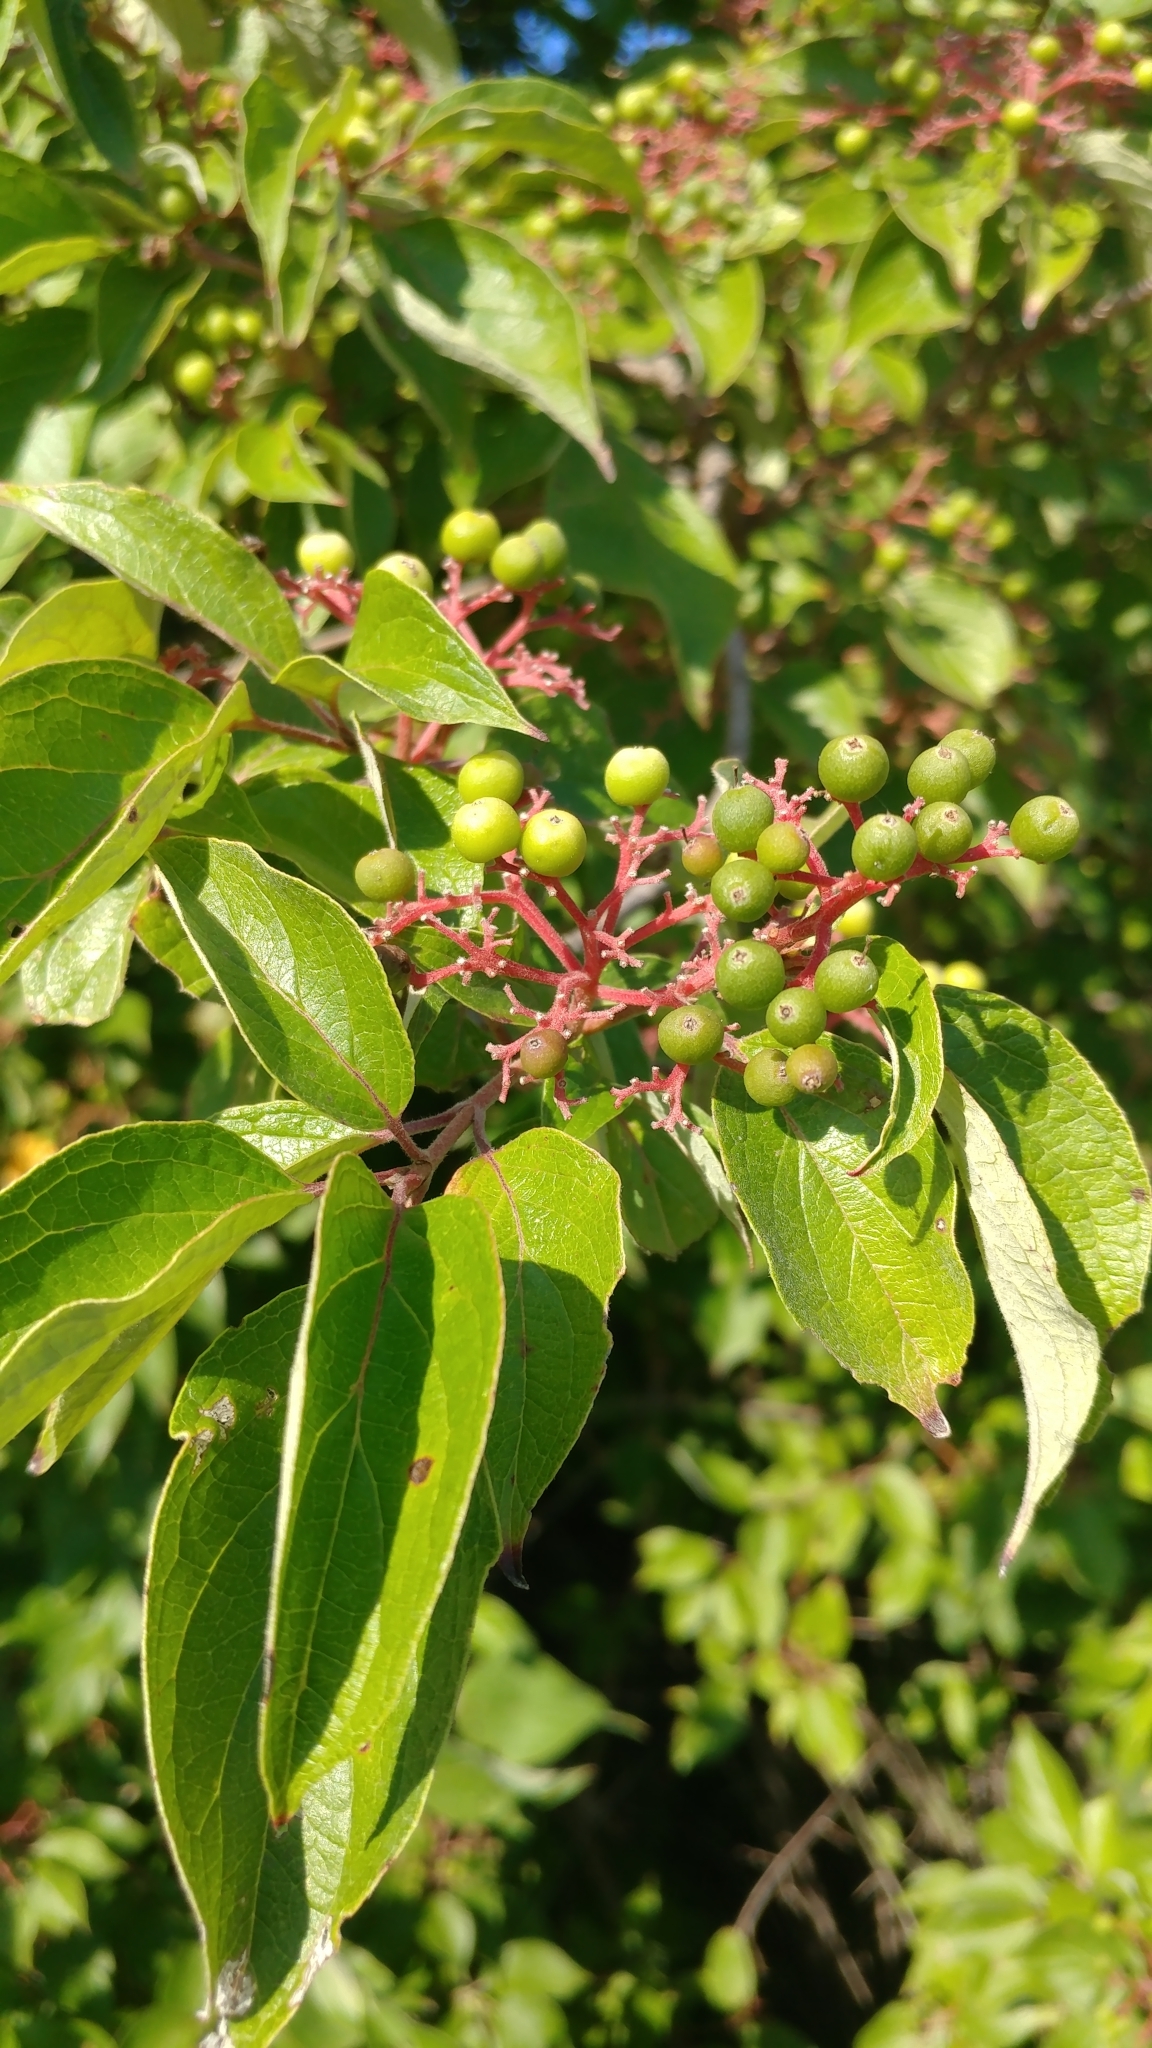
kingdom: Plantae
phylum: Tracheophyta
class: Magnoliopsida
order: Cornales
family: Cornaceae
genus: Cornus
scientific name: Cornus drummondii
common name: Rough-leaf dogwood
